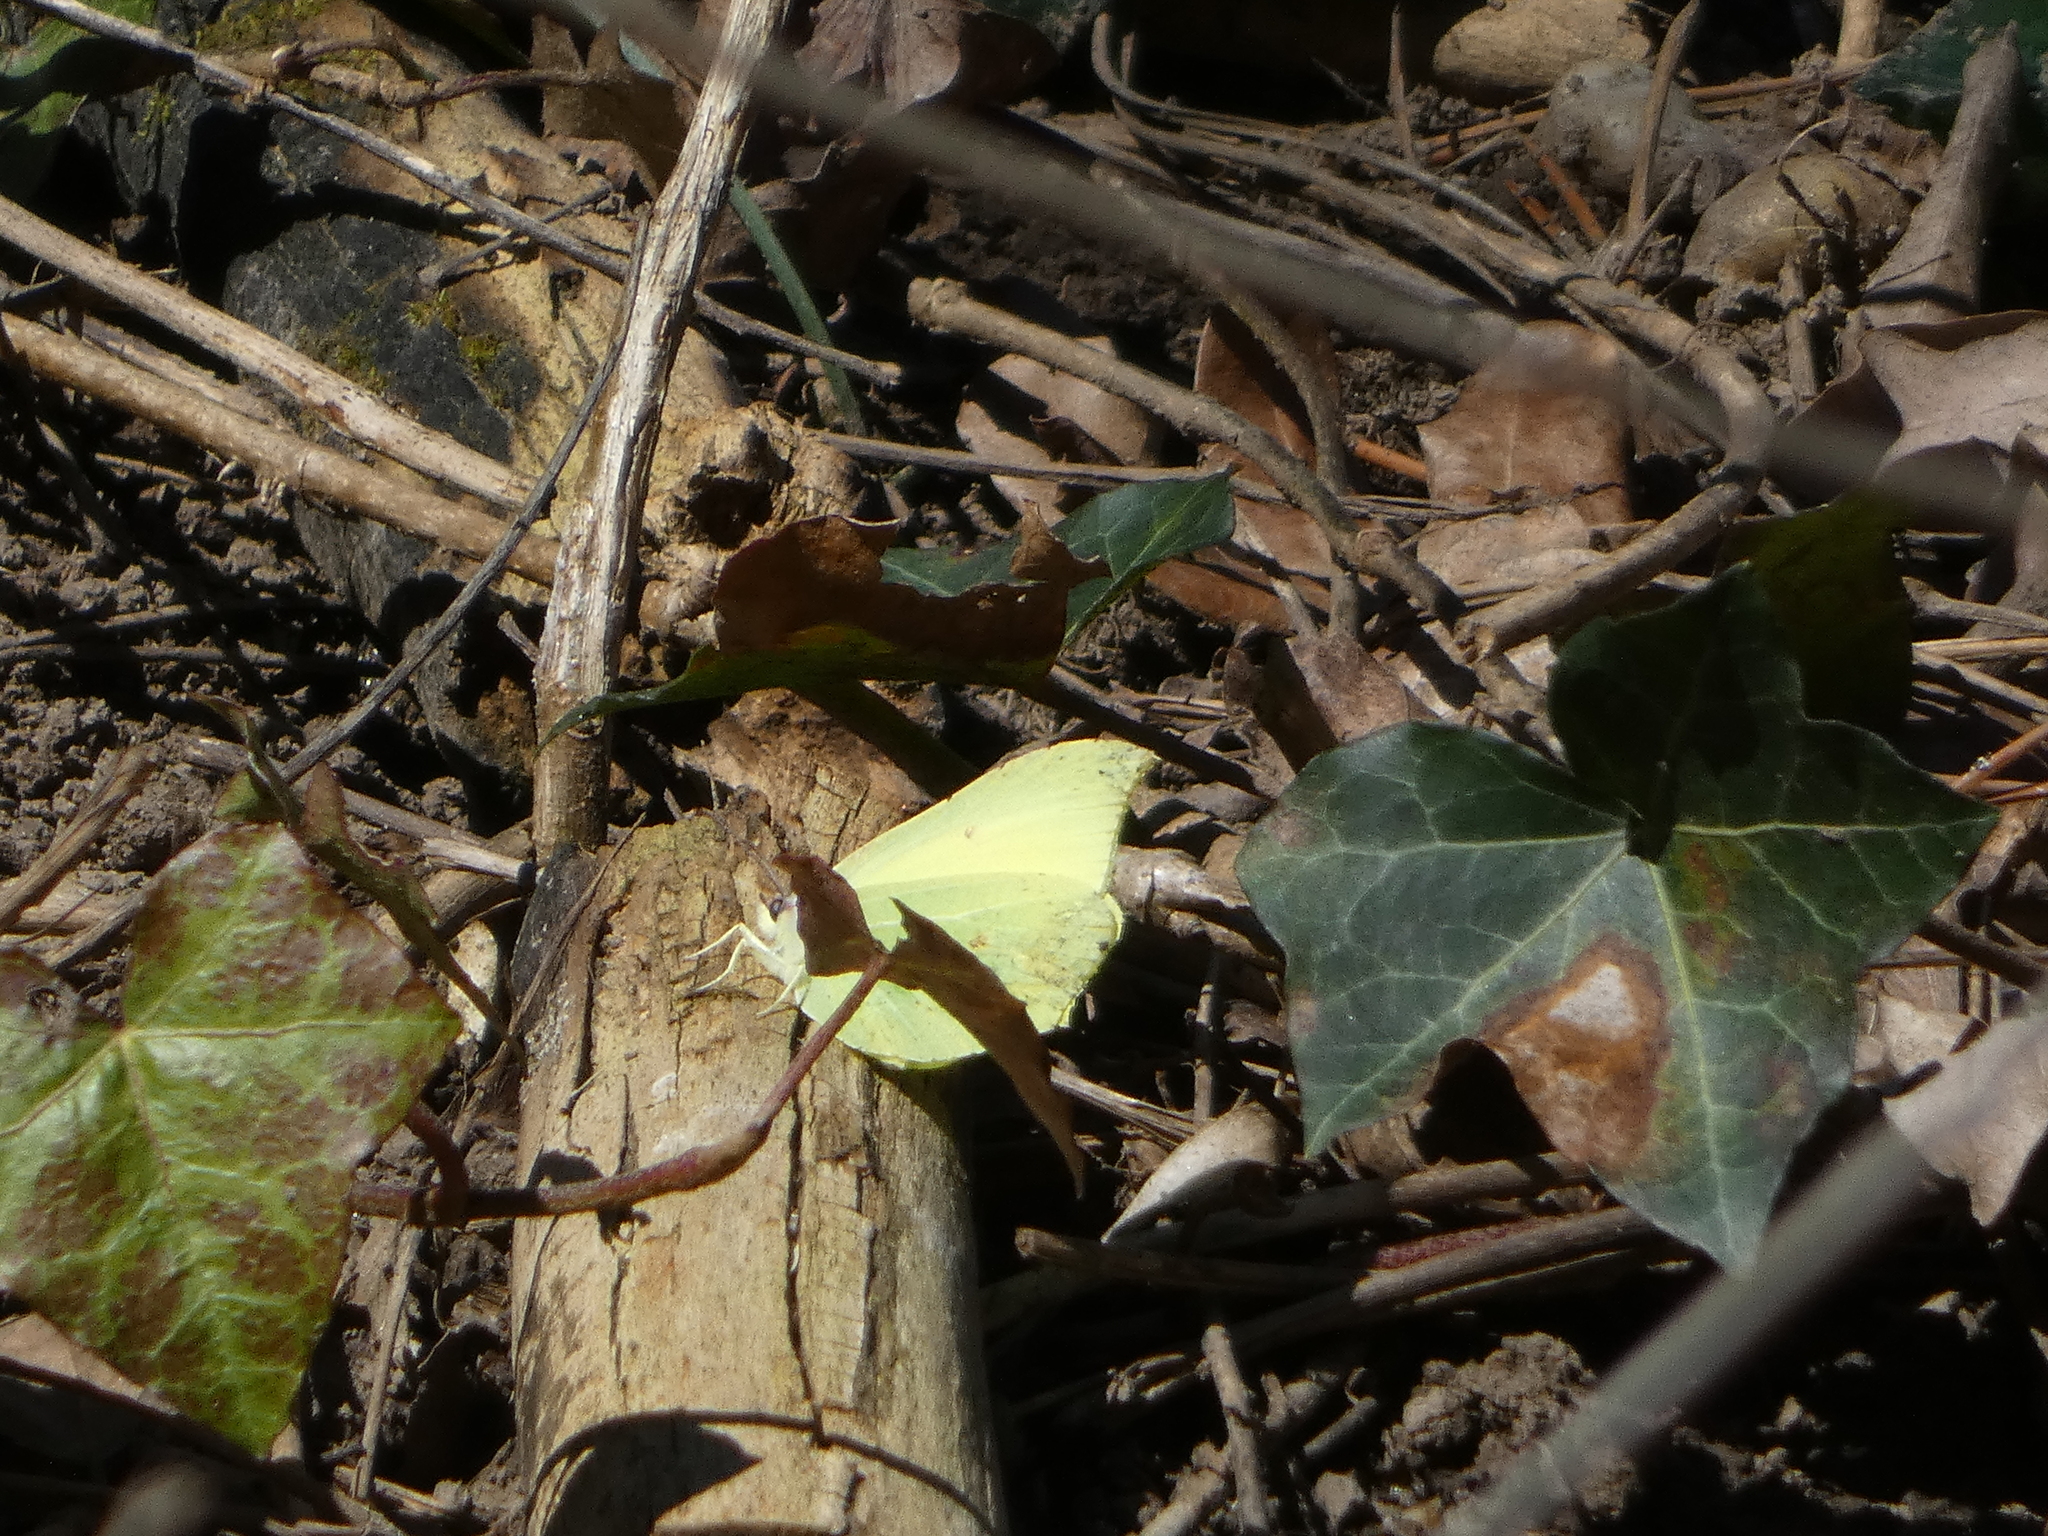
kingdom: Animalia
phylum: Arthropoda
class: Insecta
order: Lepidoptera
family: Pieridae
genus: Gonepteryx
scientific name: Gonepteryx rhamni
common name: Brimstone
